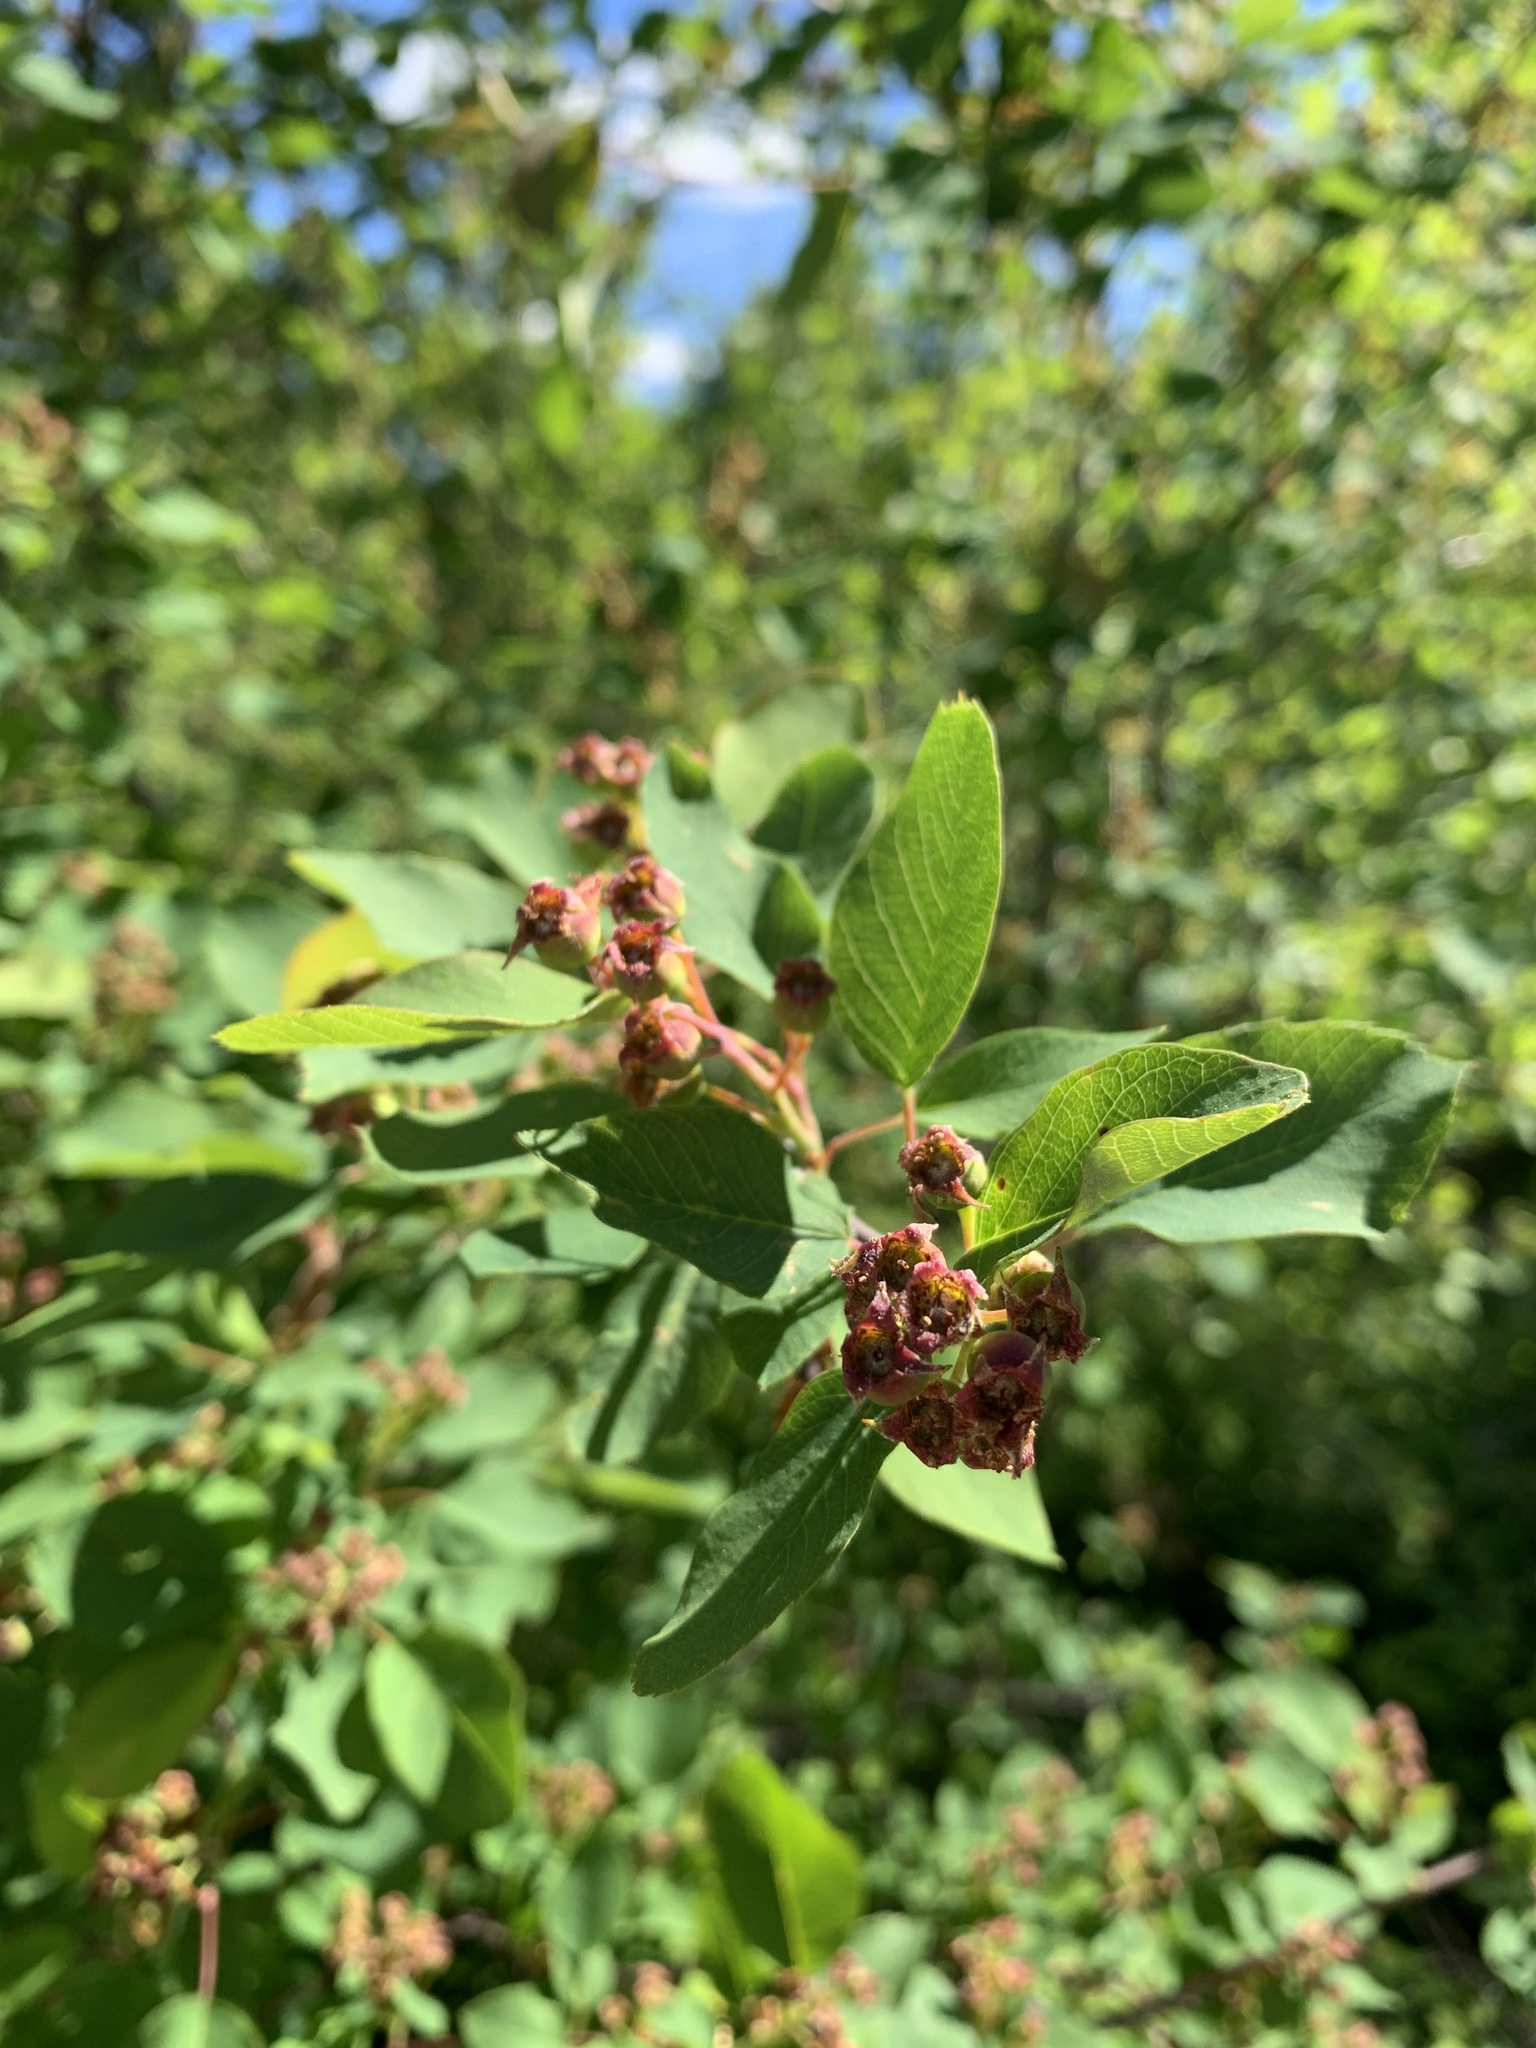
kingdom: Plantae
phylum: Tracheophyta
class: Magnoliopsida
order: Rosales
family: Rosaceae
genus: Amelanchier
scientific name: Amelanchier alnifolia
